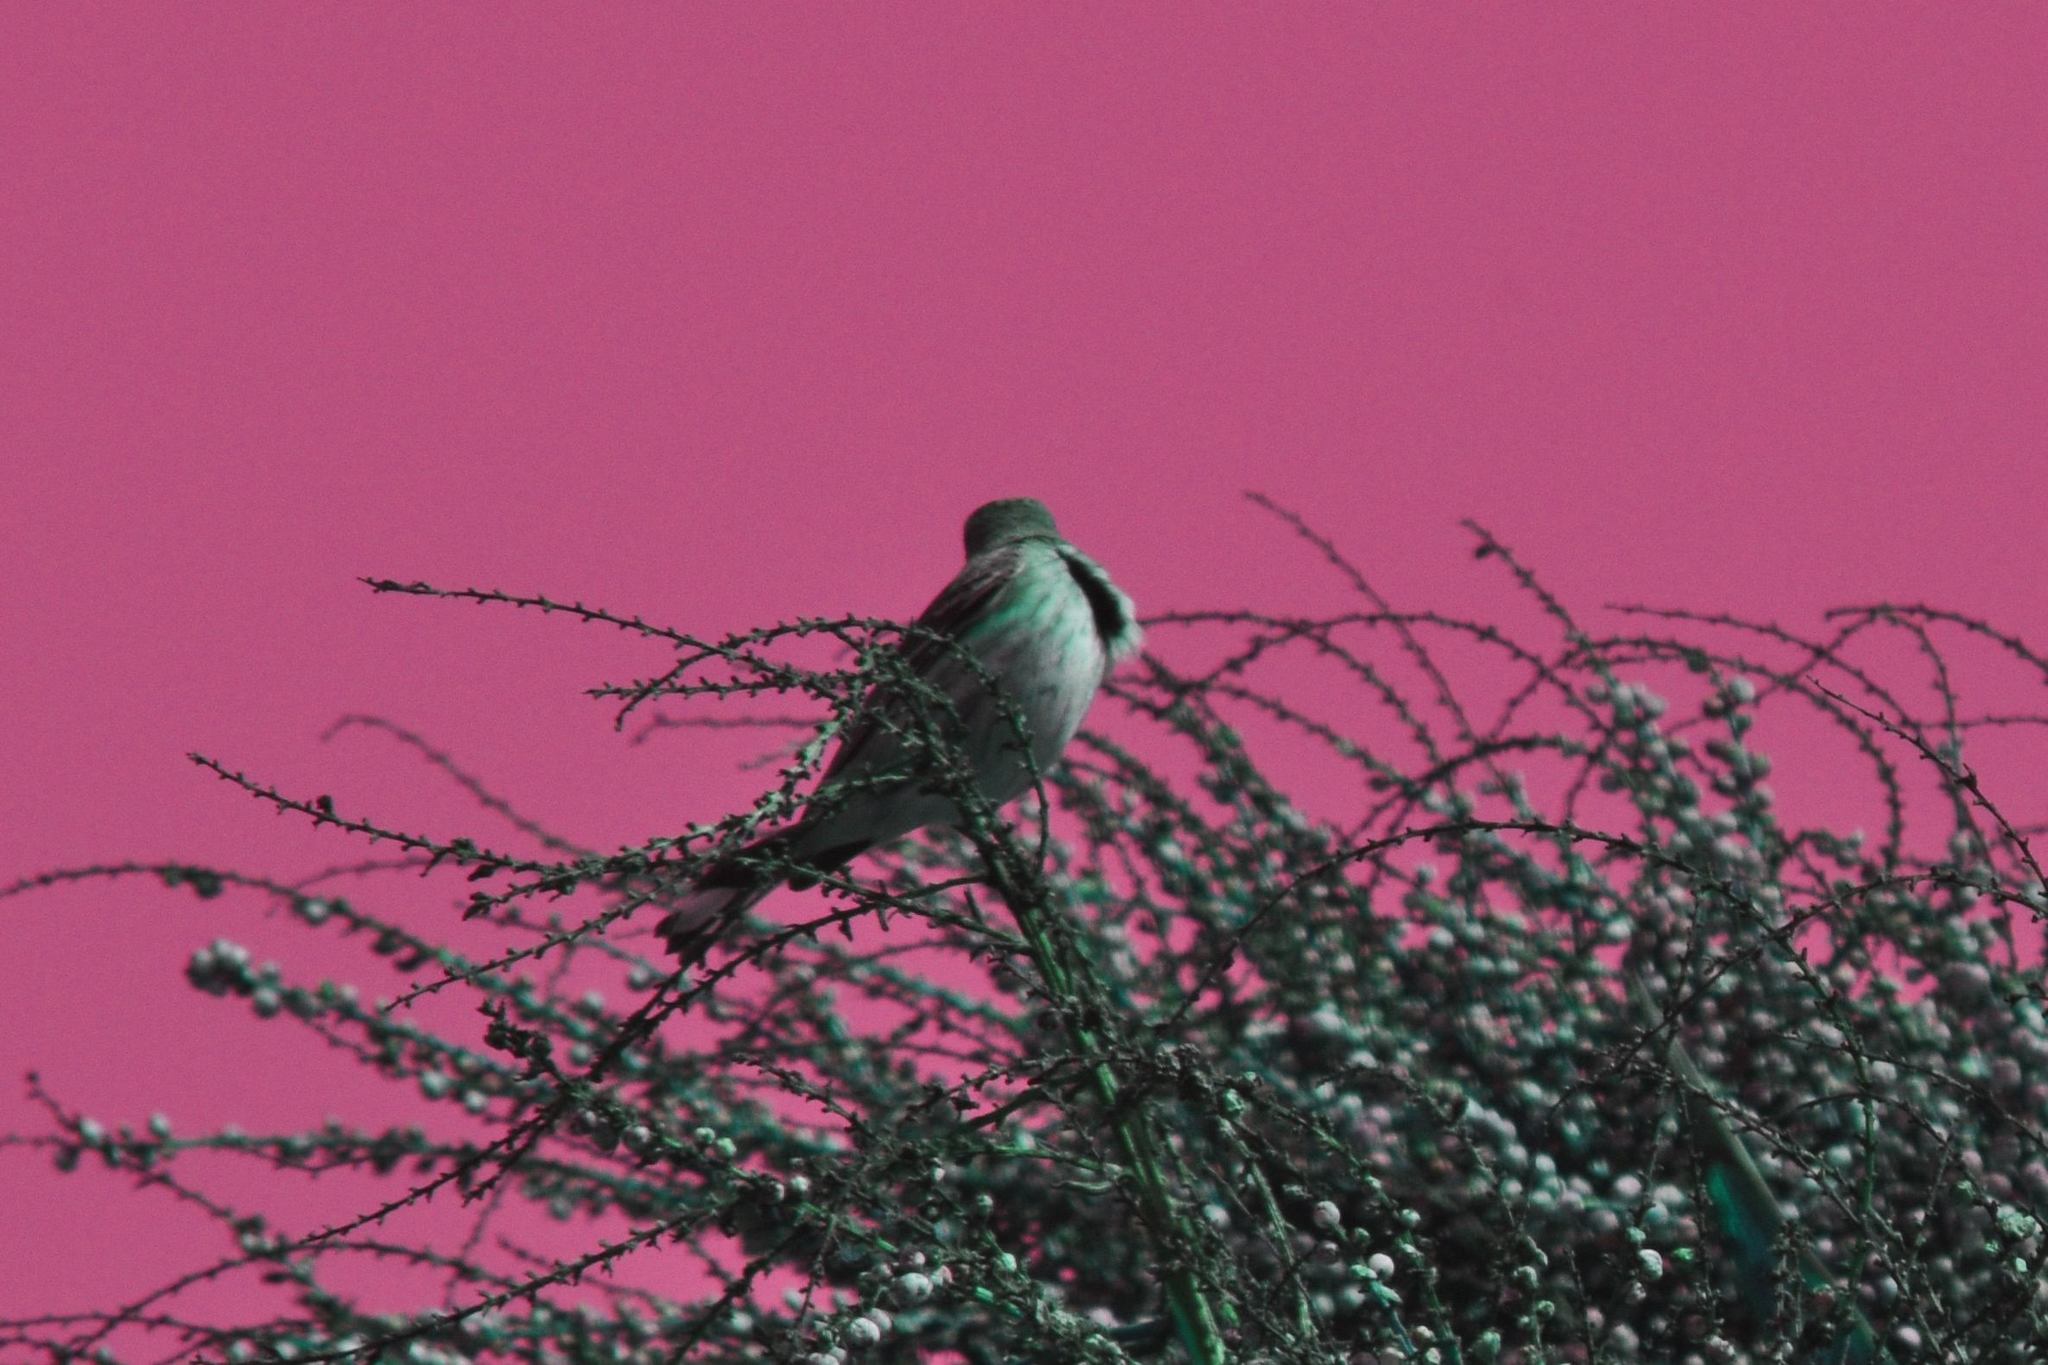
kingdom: Animalia
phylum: Chordata
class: Aves
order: Passeriformes
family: Parulidae
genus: Setophaga
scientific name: Setophaga auduboni
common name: Audubon's warbler
